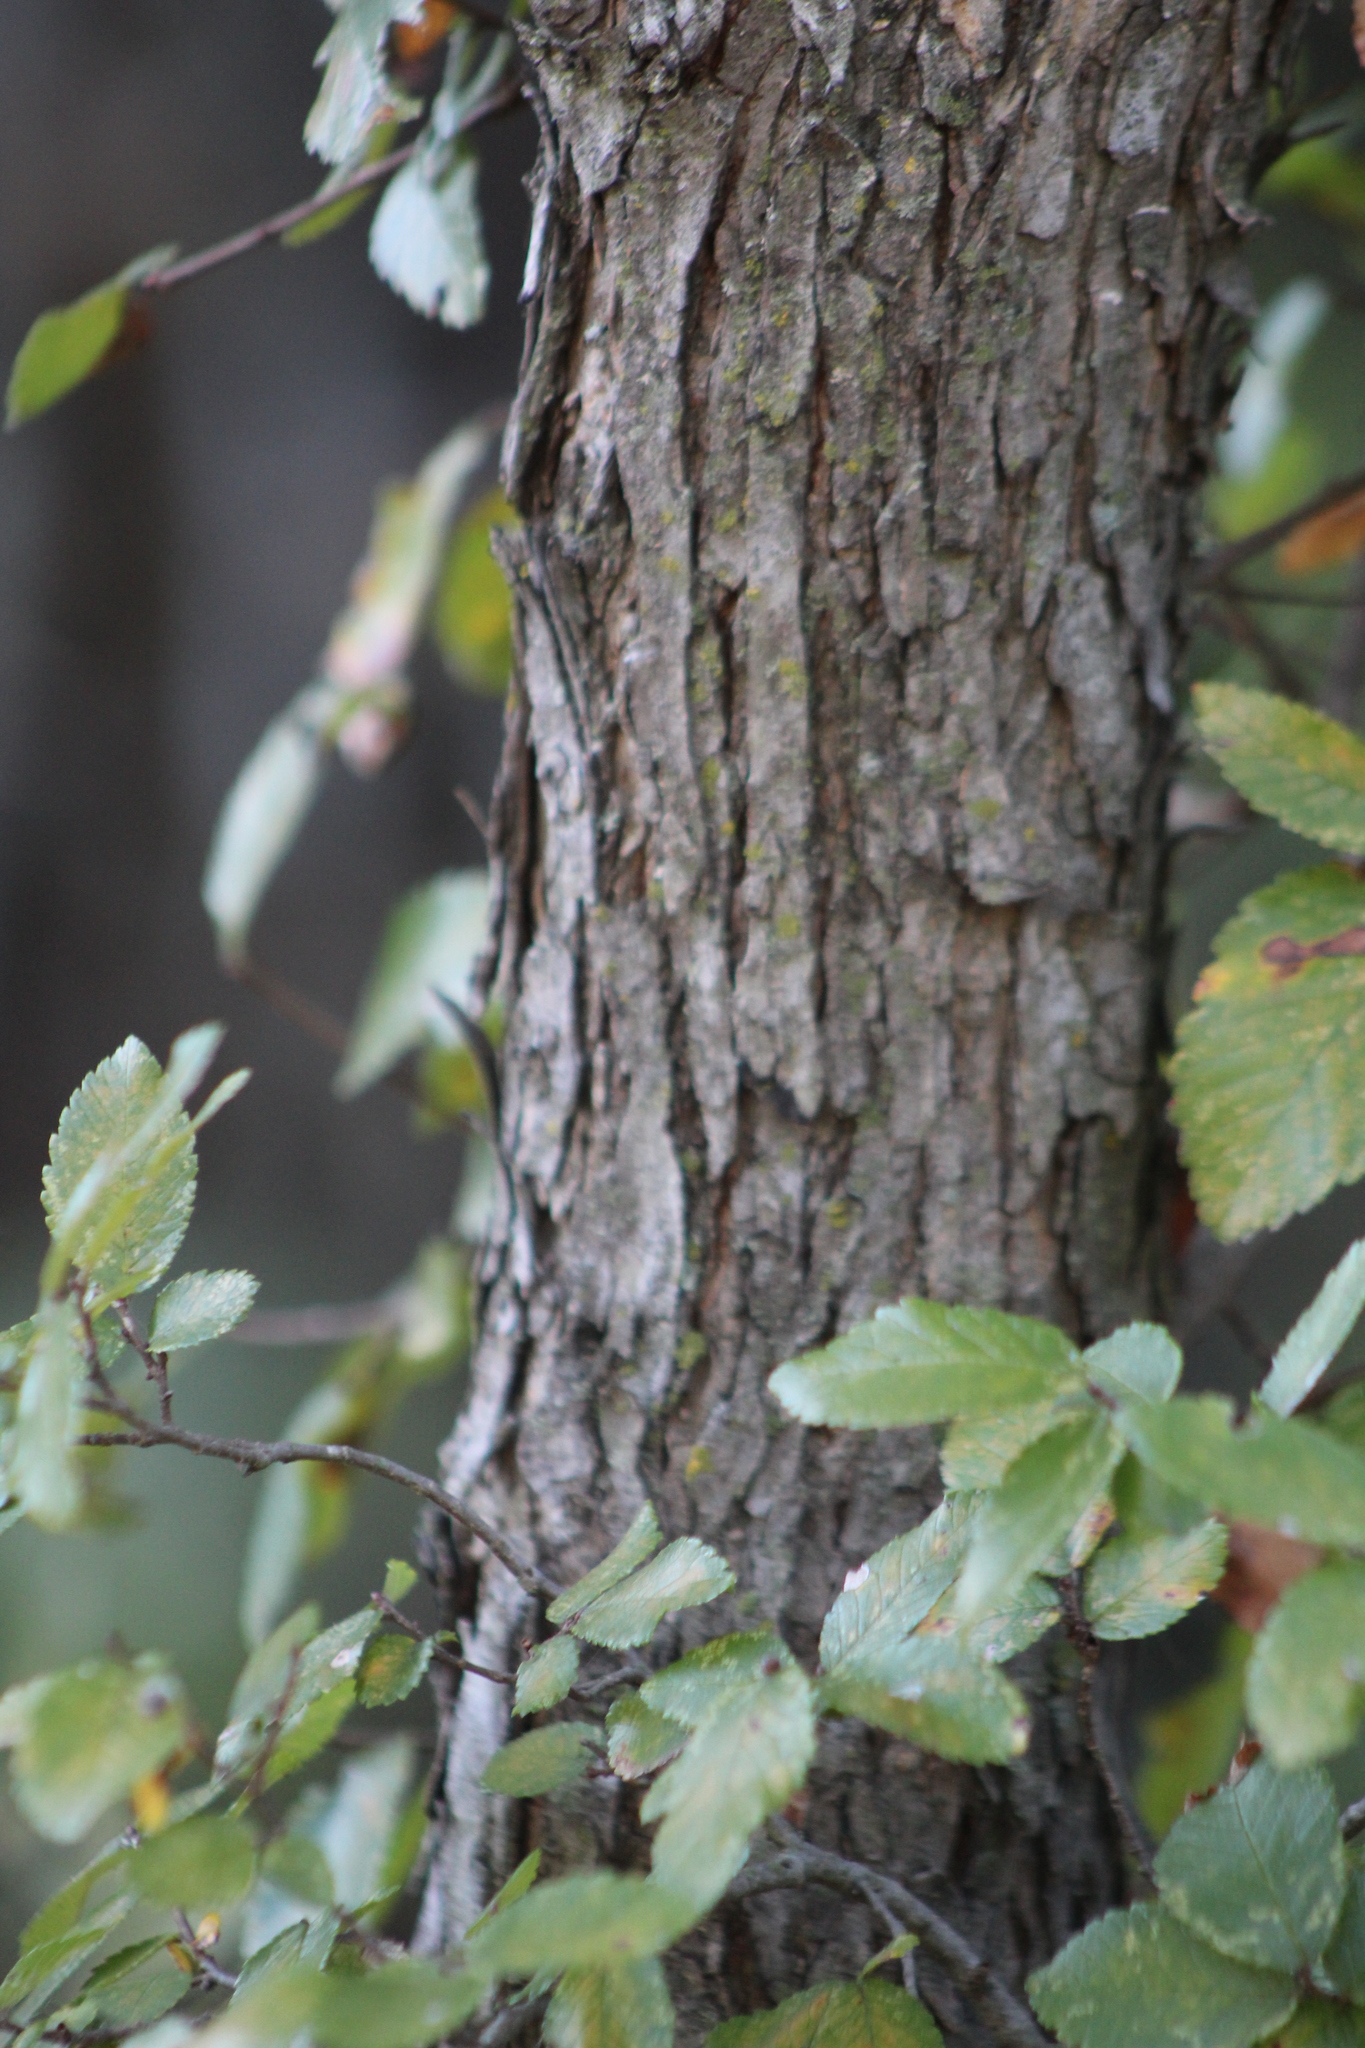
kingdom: Plantae
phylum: Tracheophyta
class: Magnoliopsida
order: Rosales
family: Ulmaceae
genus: Ulmus
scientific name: Ulmus crassifolia
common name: Basket elm
